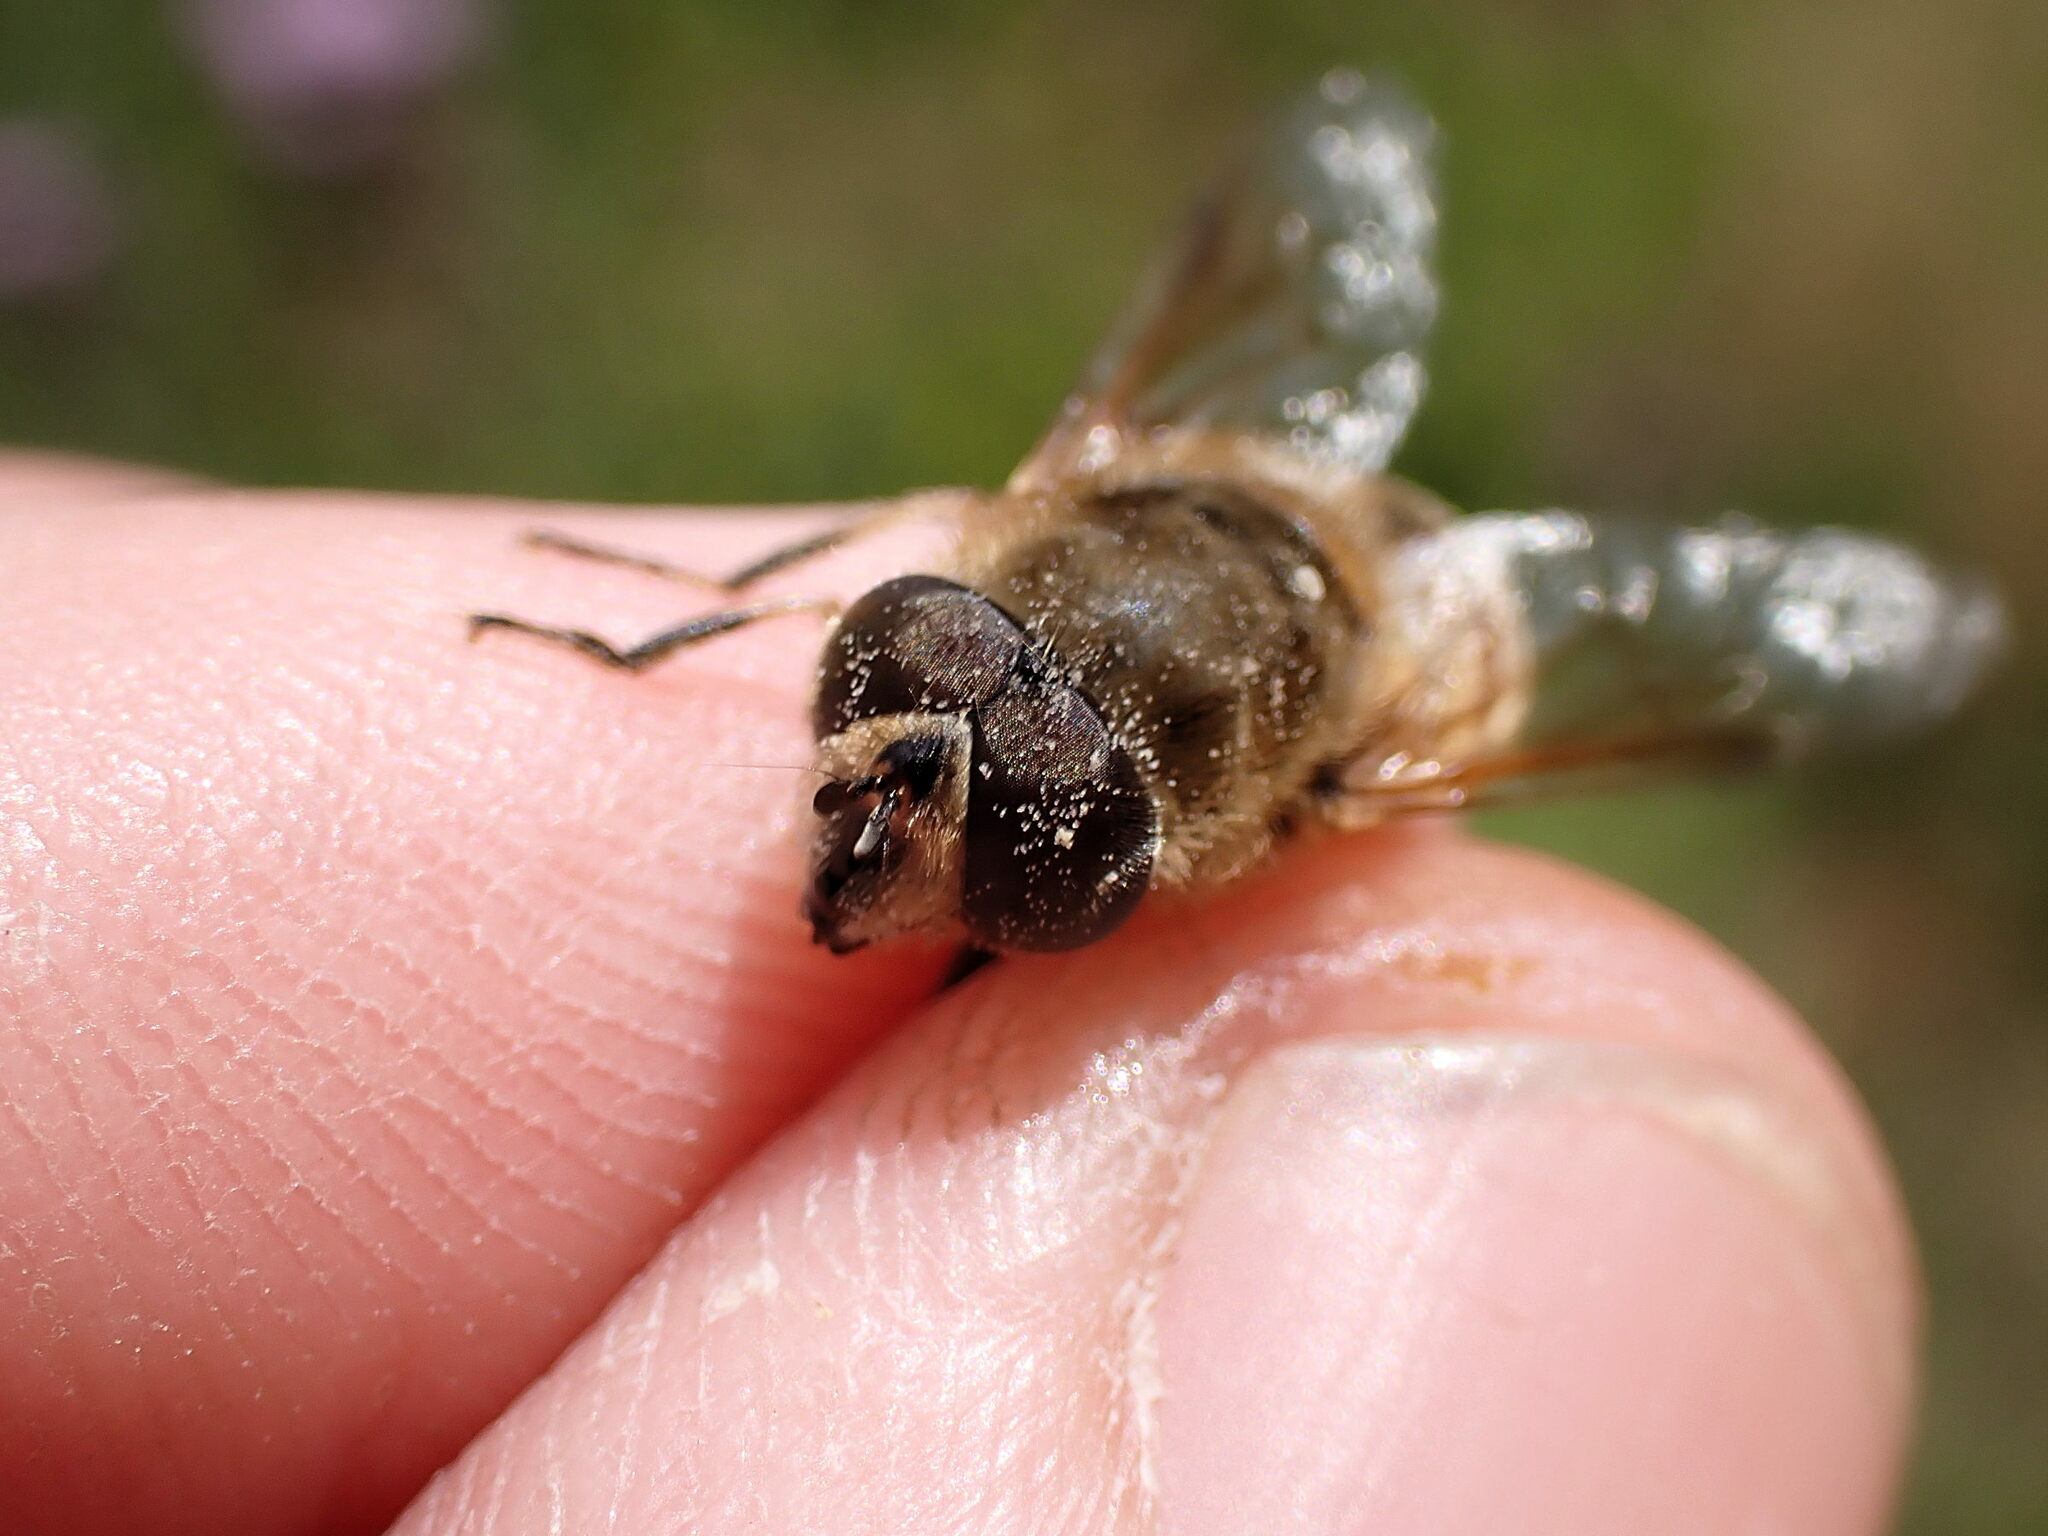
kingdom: Animalia
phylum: Arthropoda
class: Insecta
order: Diptera
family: Syrphidae
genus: Eristalis
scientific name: Eristalis tenax
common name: Drone fly
